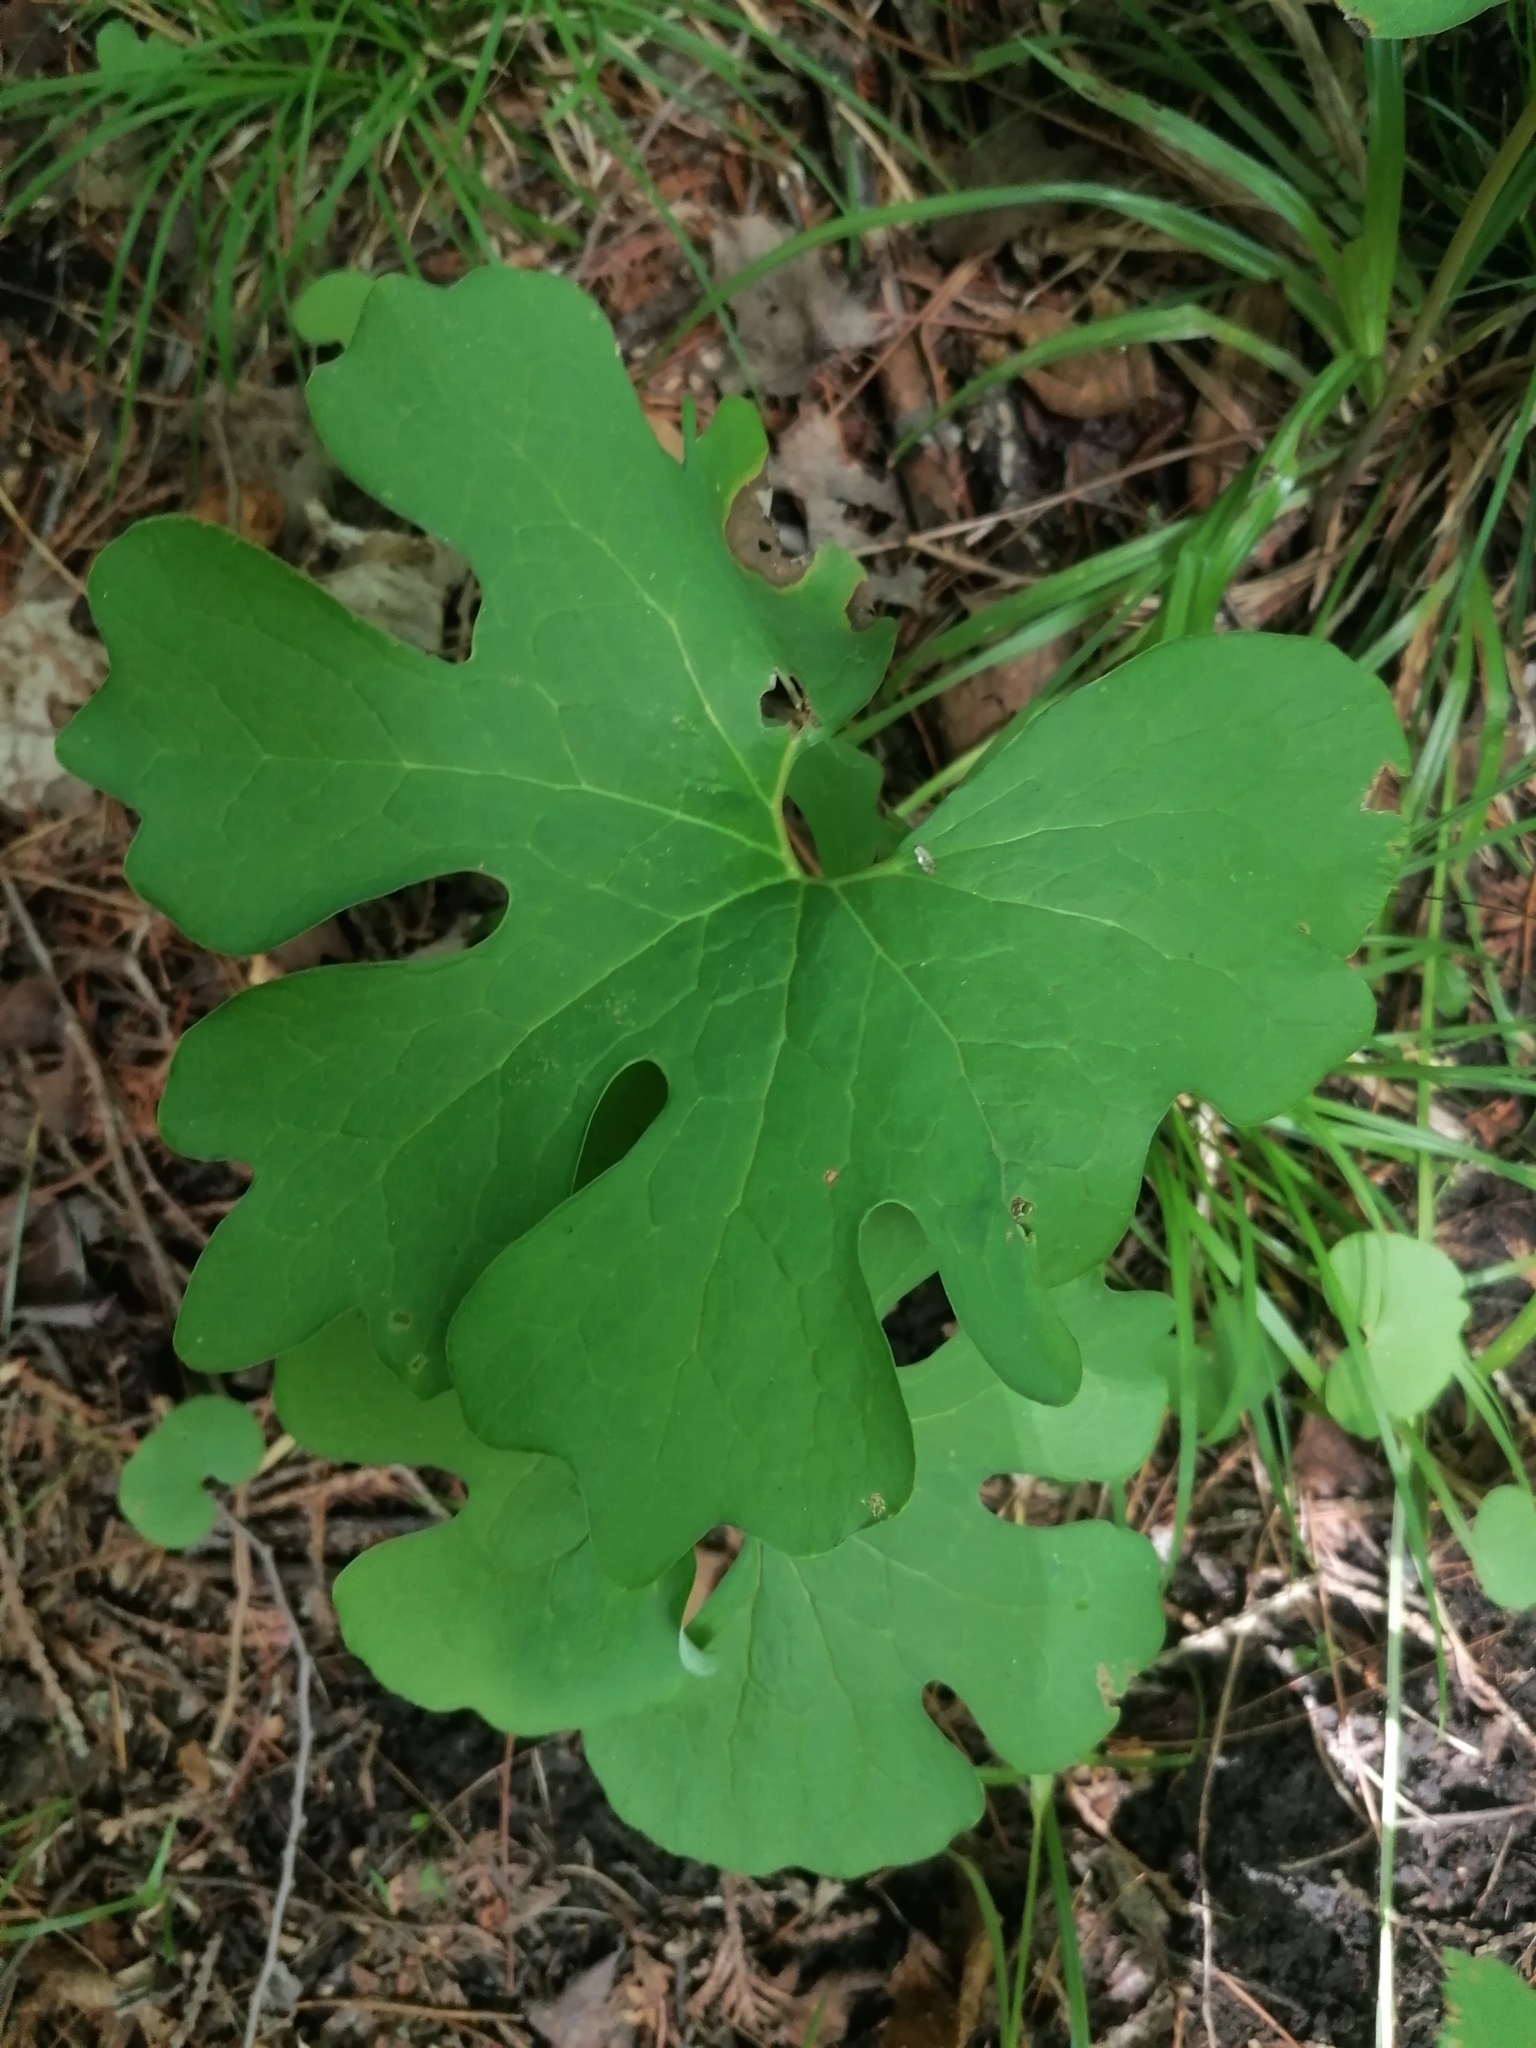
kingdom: Plantae
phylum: Tracheophyta
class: Magnoliopsida
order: Ranunculales
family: Papaveraceae
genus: Sanguinaria
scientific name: Sanguinaria canadensis
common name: Bloodroot
